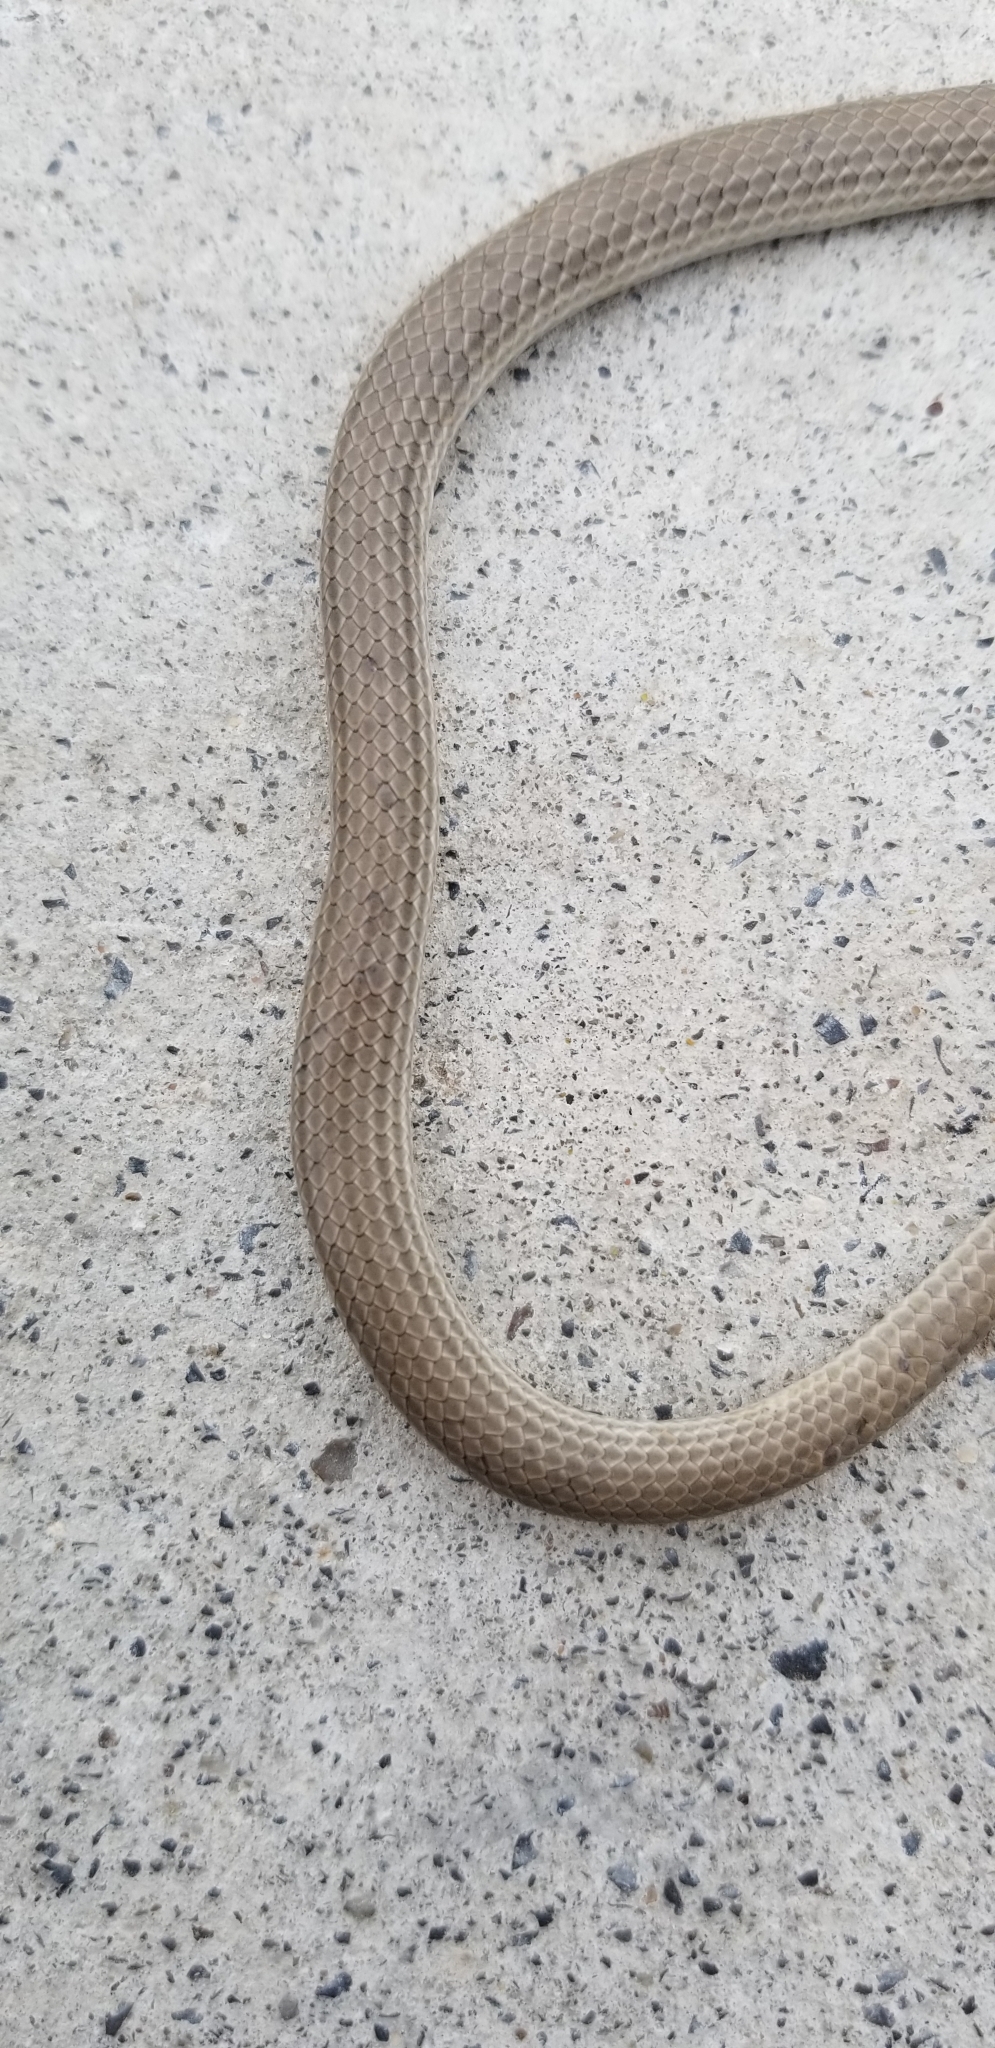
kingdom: Animalia
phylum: Chordata
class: Squamata
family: Colubridae
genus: Sonora
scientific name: Sonora taylori
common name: Taylor’s ground snake
